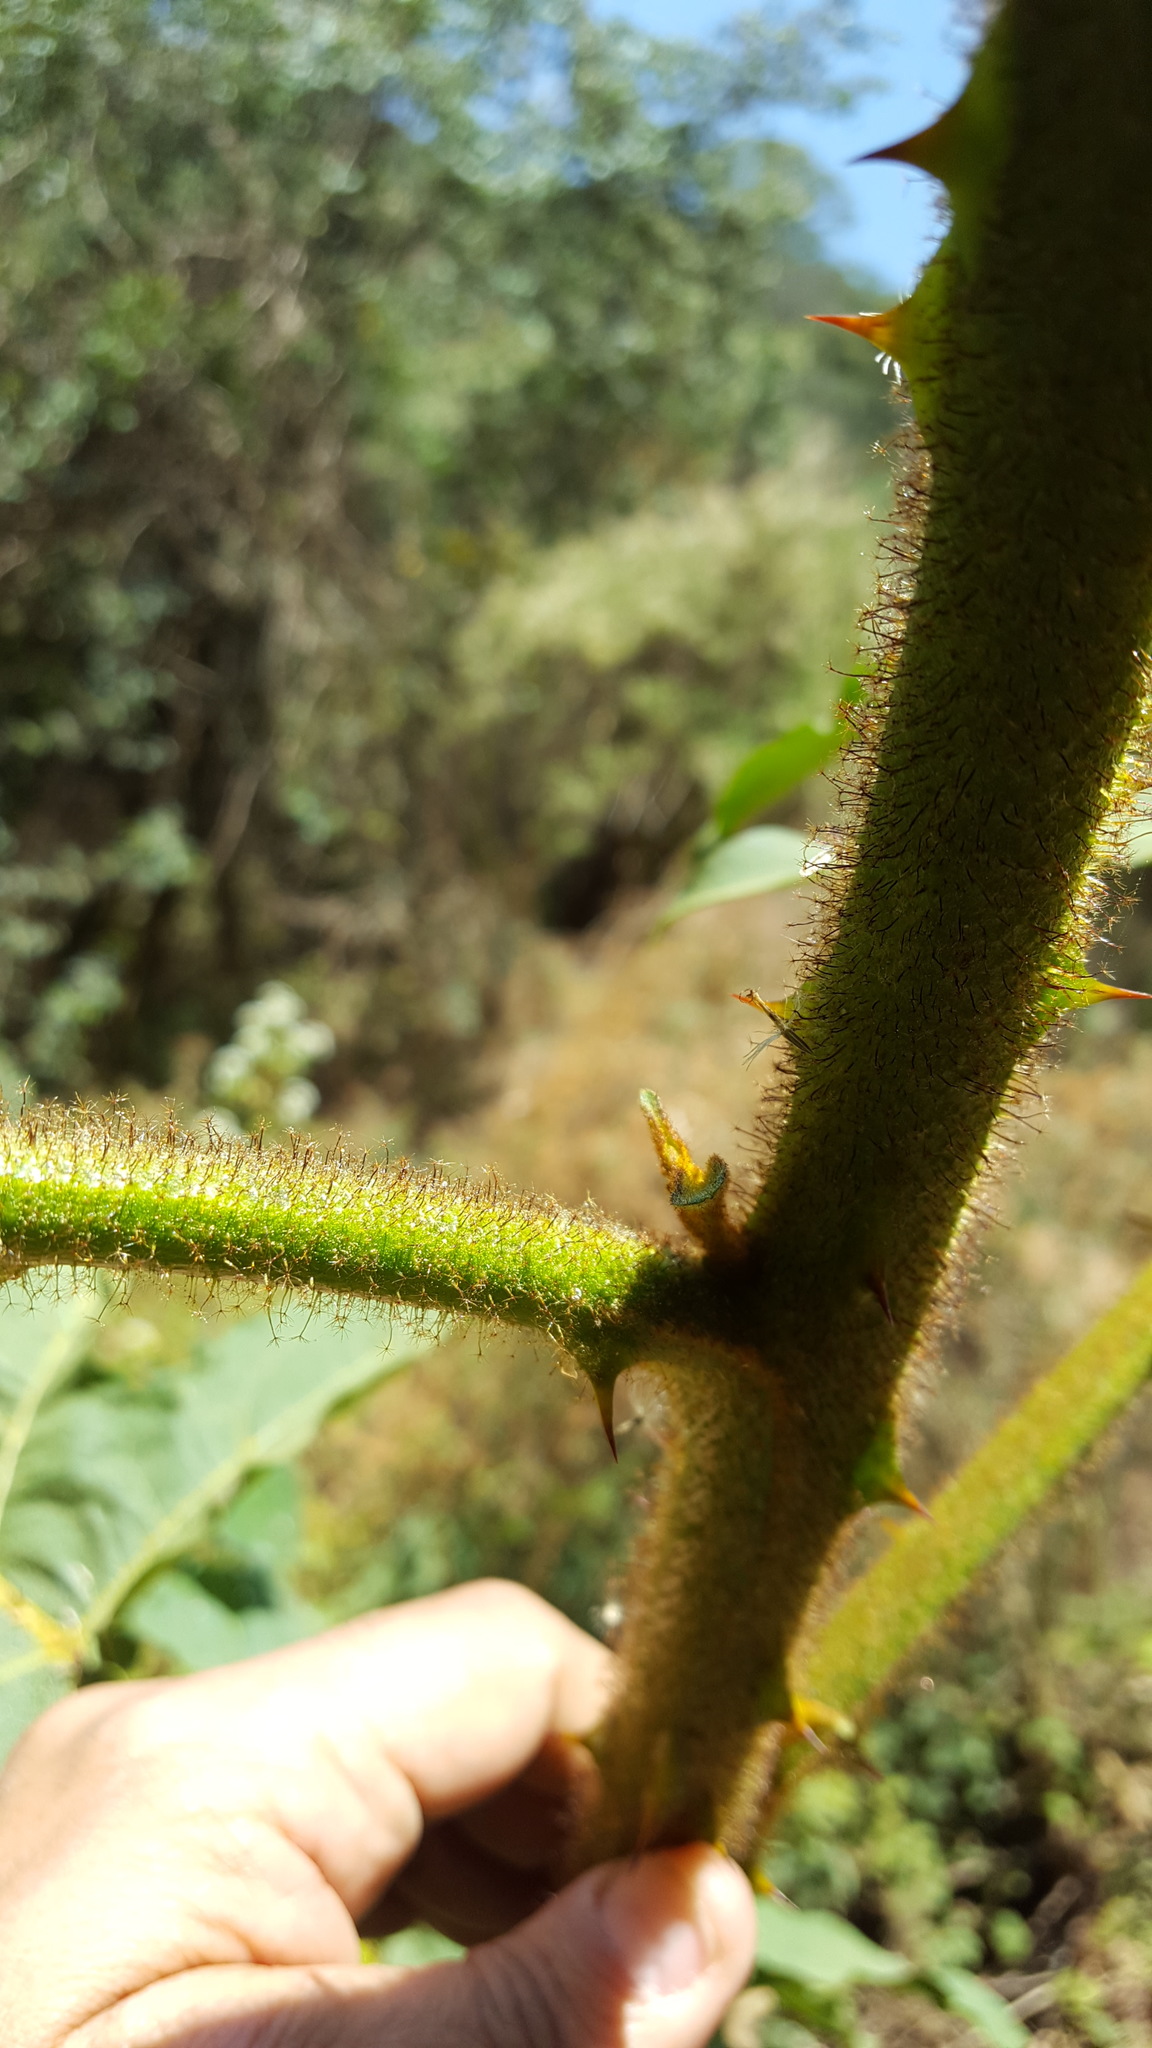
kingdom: Plantae
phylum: Tracheophyta
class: Magnoliopsida
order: Solanales
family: Solanaceae
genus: Solanum
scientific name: Solanum chrysotrichum
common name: Nightshade
